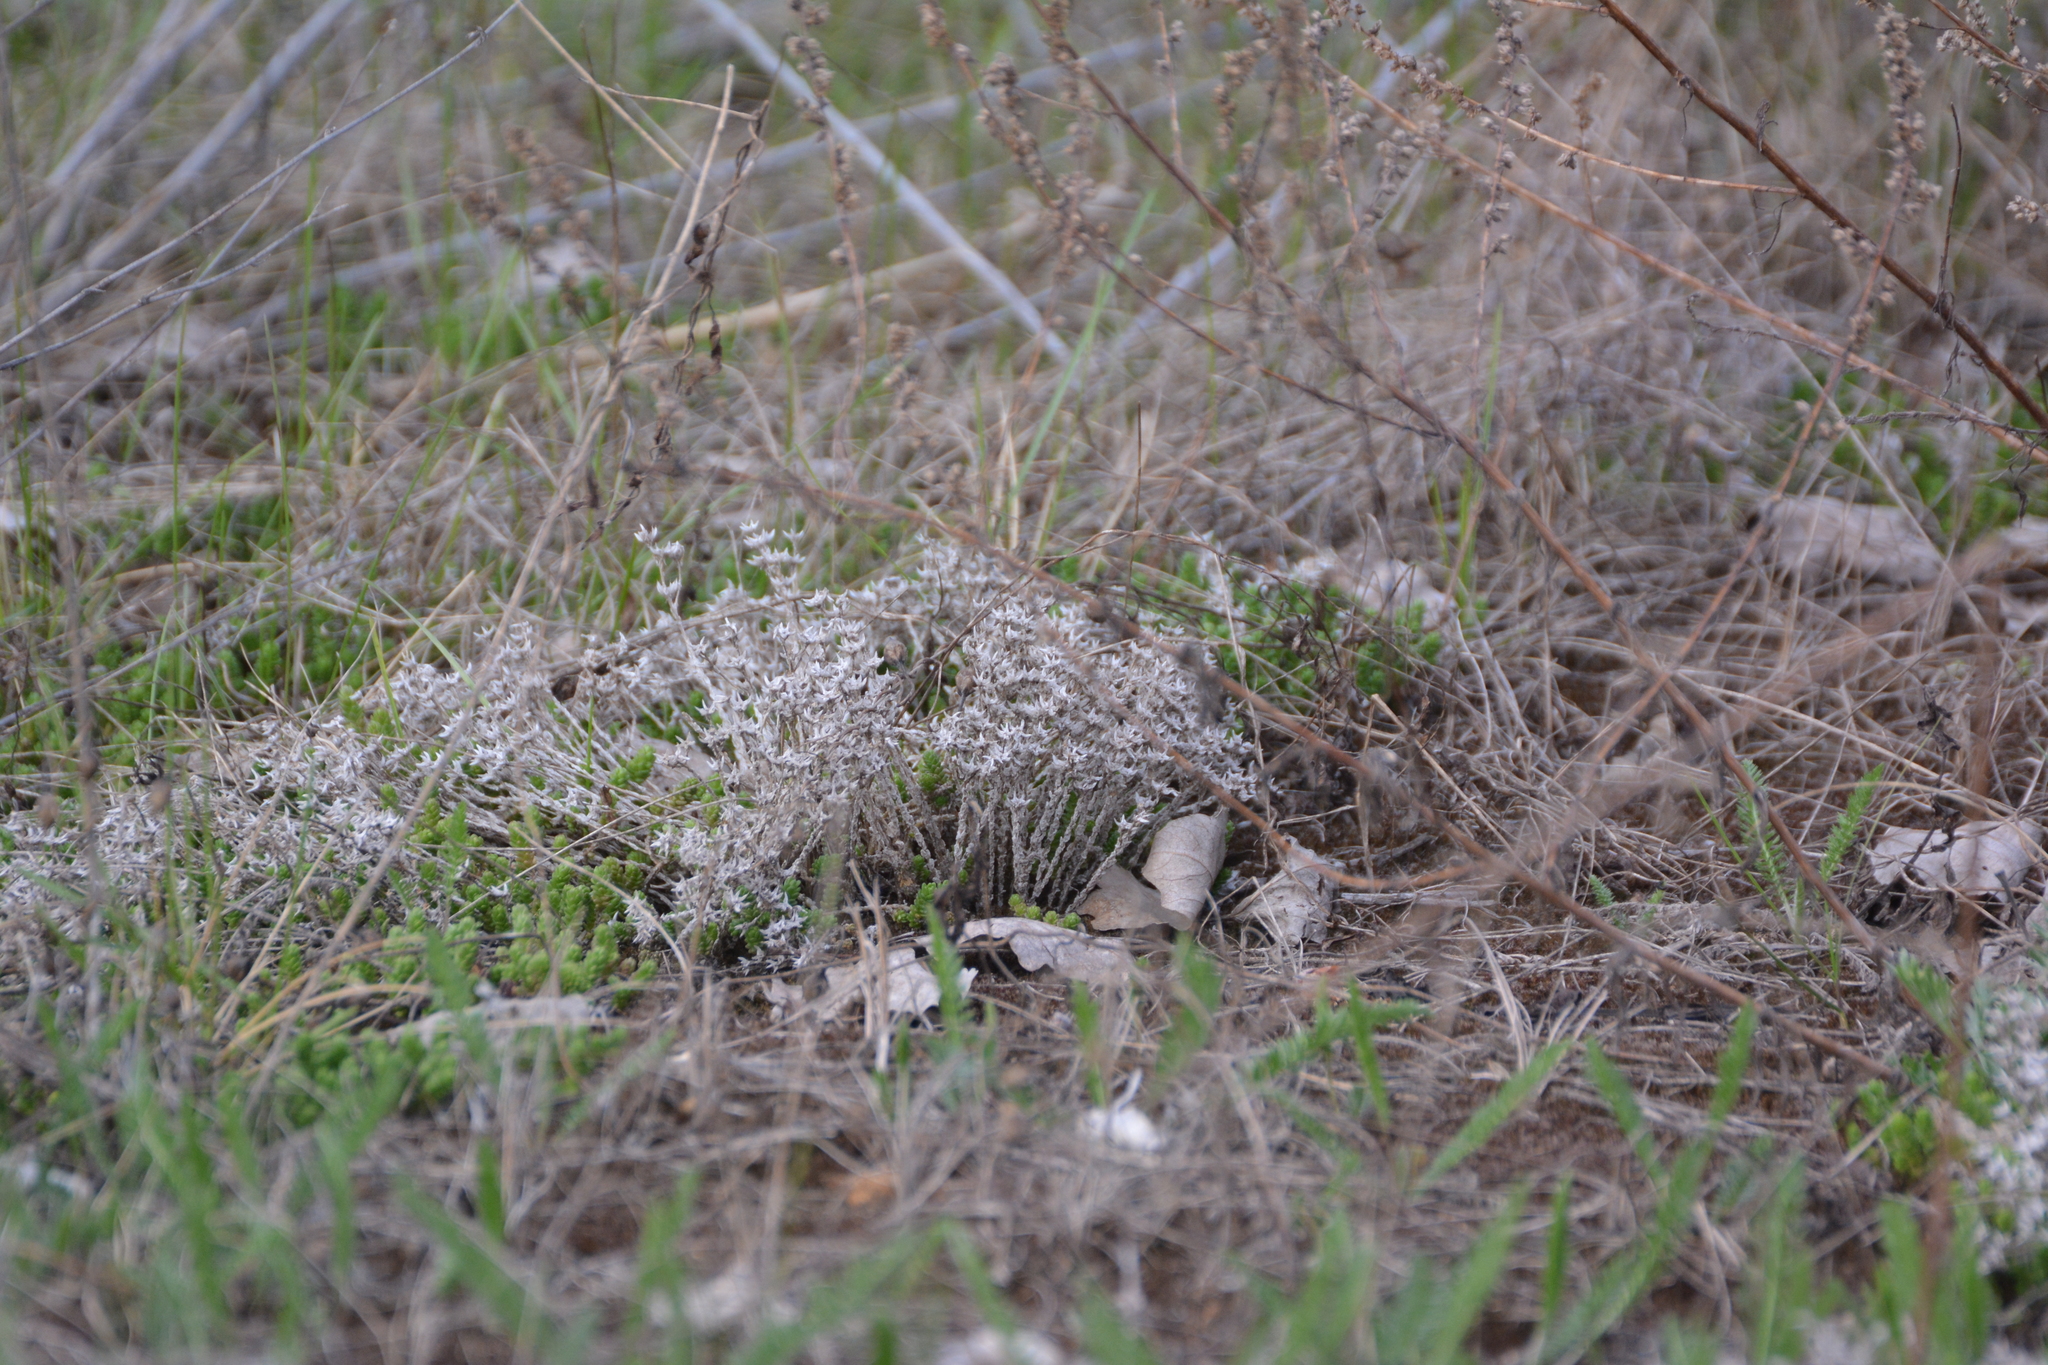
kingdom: Plantae
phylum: Tracheophyta
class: Magnoliopsida
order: Saxifragales
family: Crassulaceae
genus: Sedum
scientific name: Sedum acre
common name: Biting stonecrop
